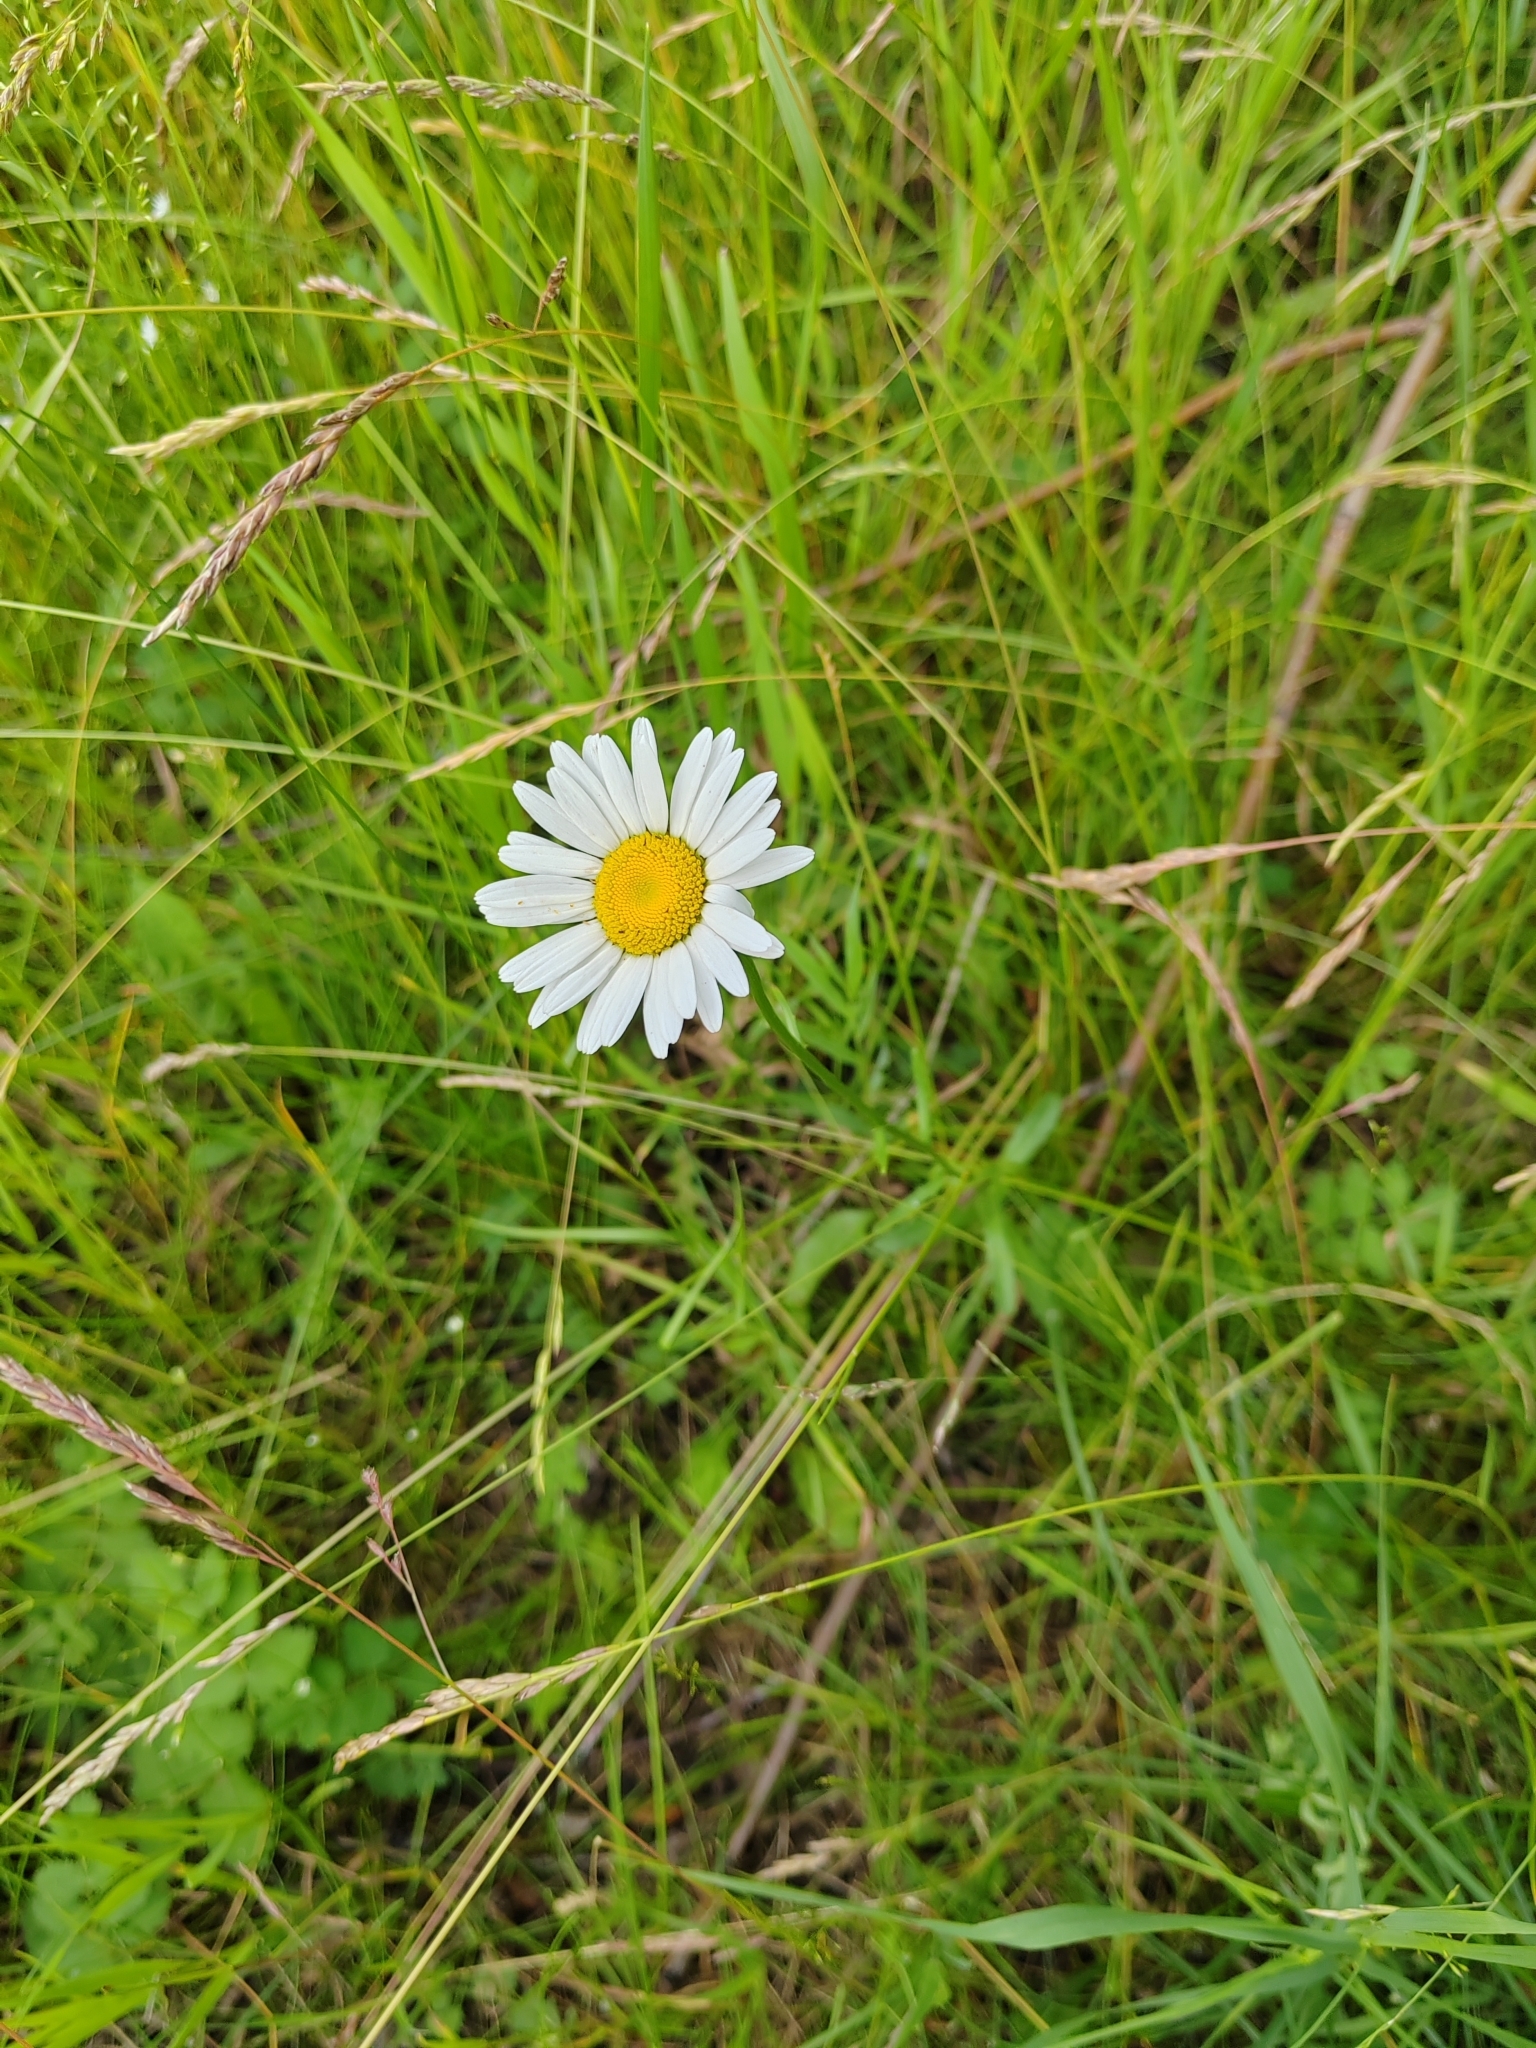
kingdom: Plantae
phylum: Tracheophyta
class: Magnoliopsida
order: Asterales
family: Asteraceae
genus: Leucanthemum
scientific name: Leucanthemum ircutianum
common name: Daisy
